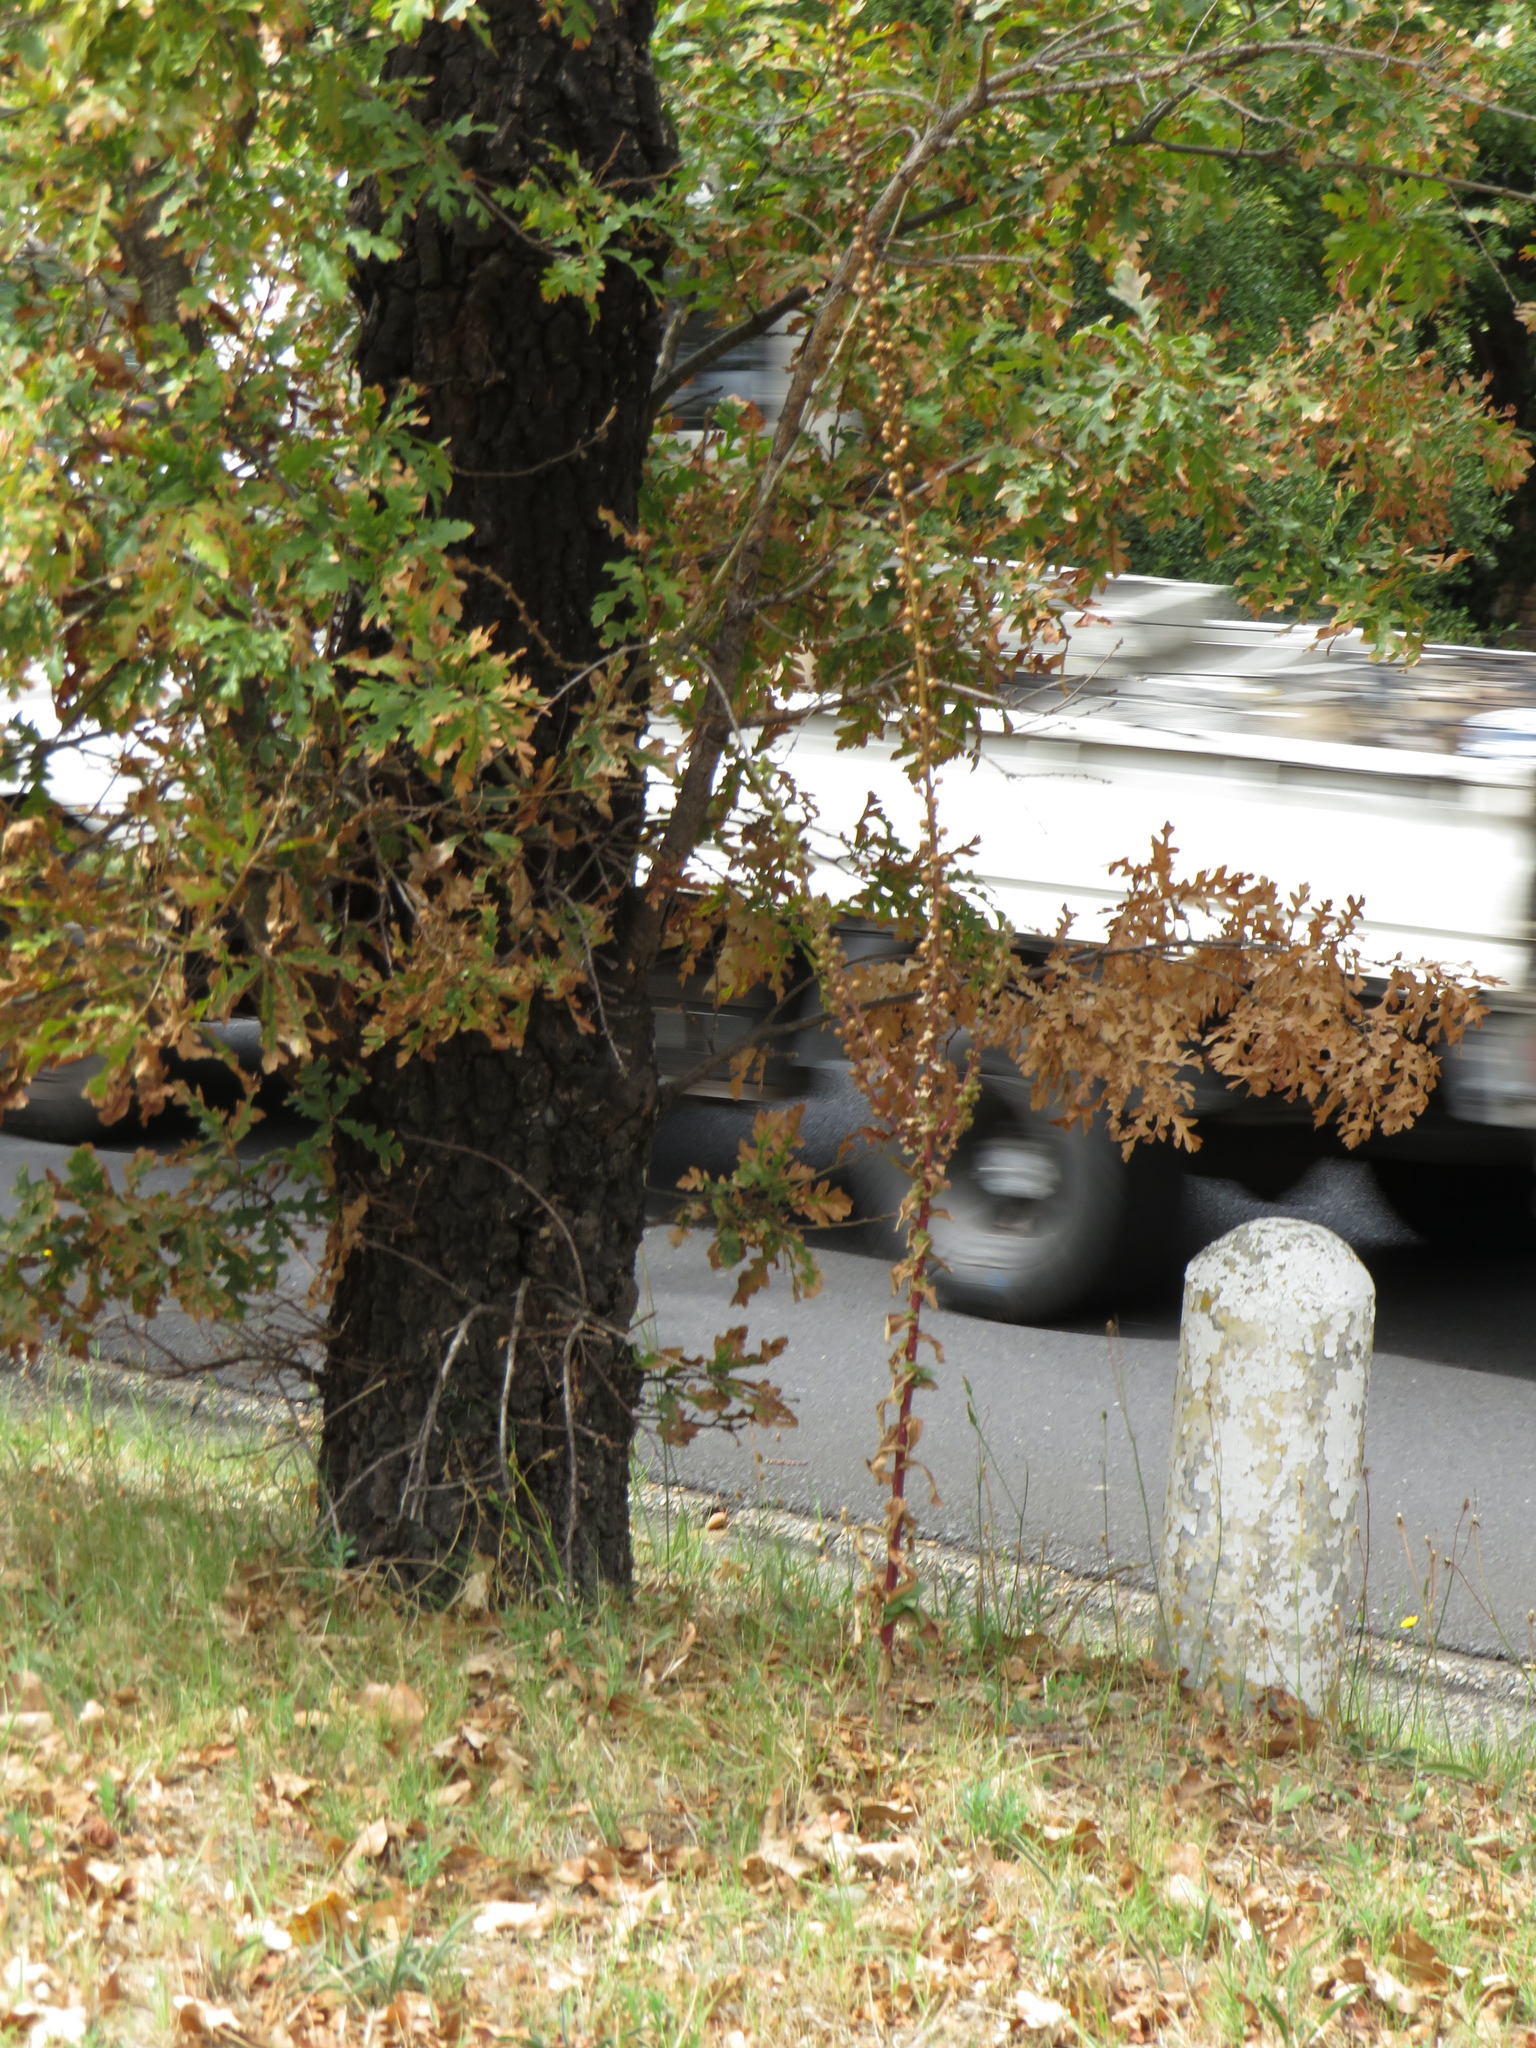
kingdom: Plantae
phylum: Tracheophyta
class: Magnoliopsida
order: Lamiales
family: Scrophulariaceae
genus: Verbascum
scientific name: Verbascum virgatum
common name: Twiggy mullein
